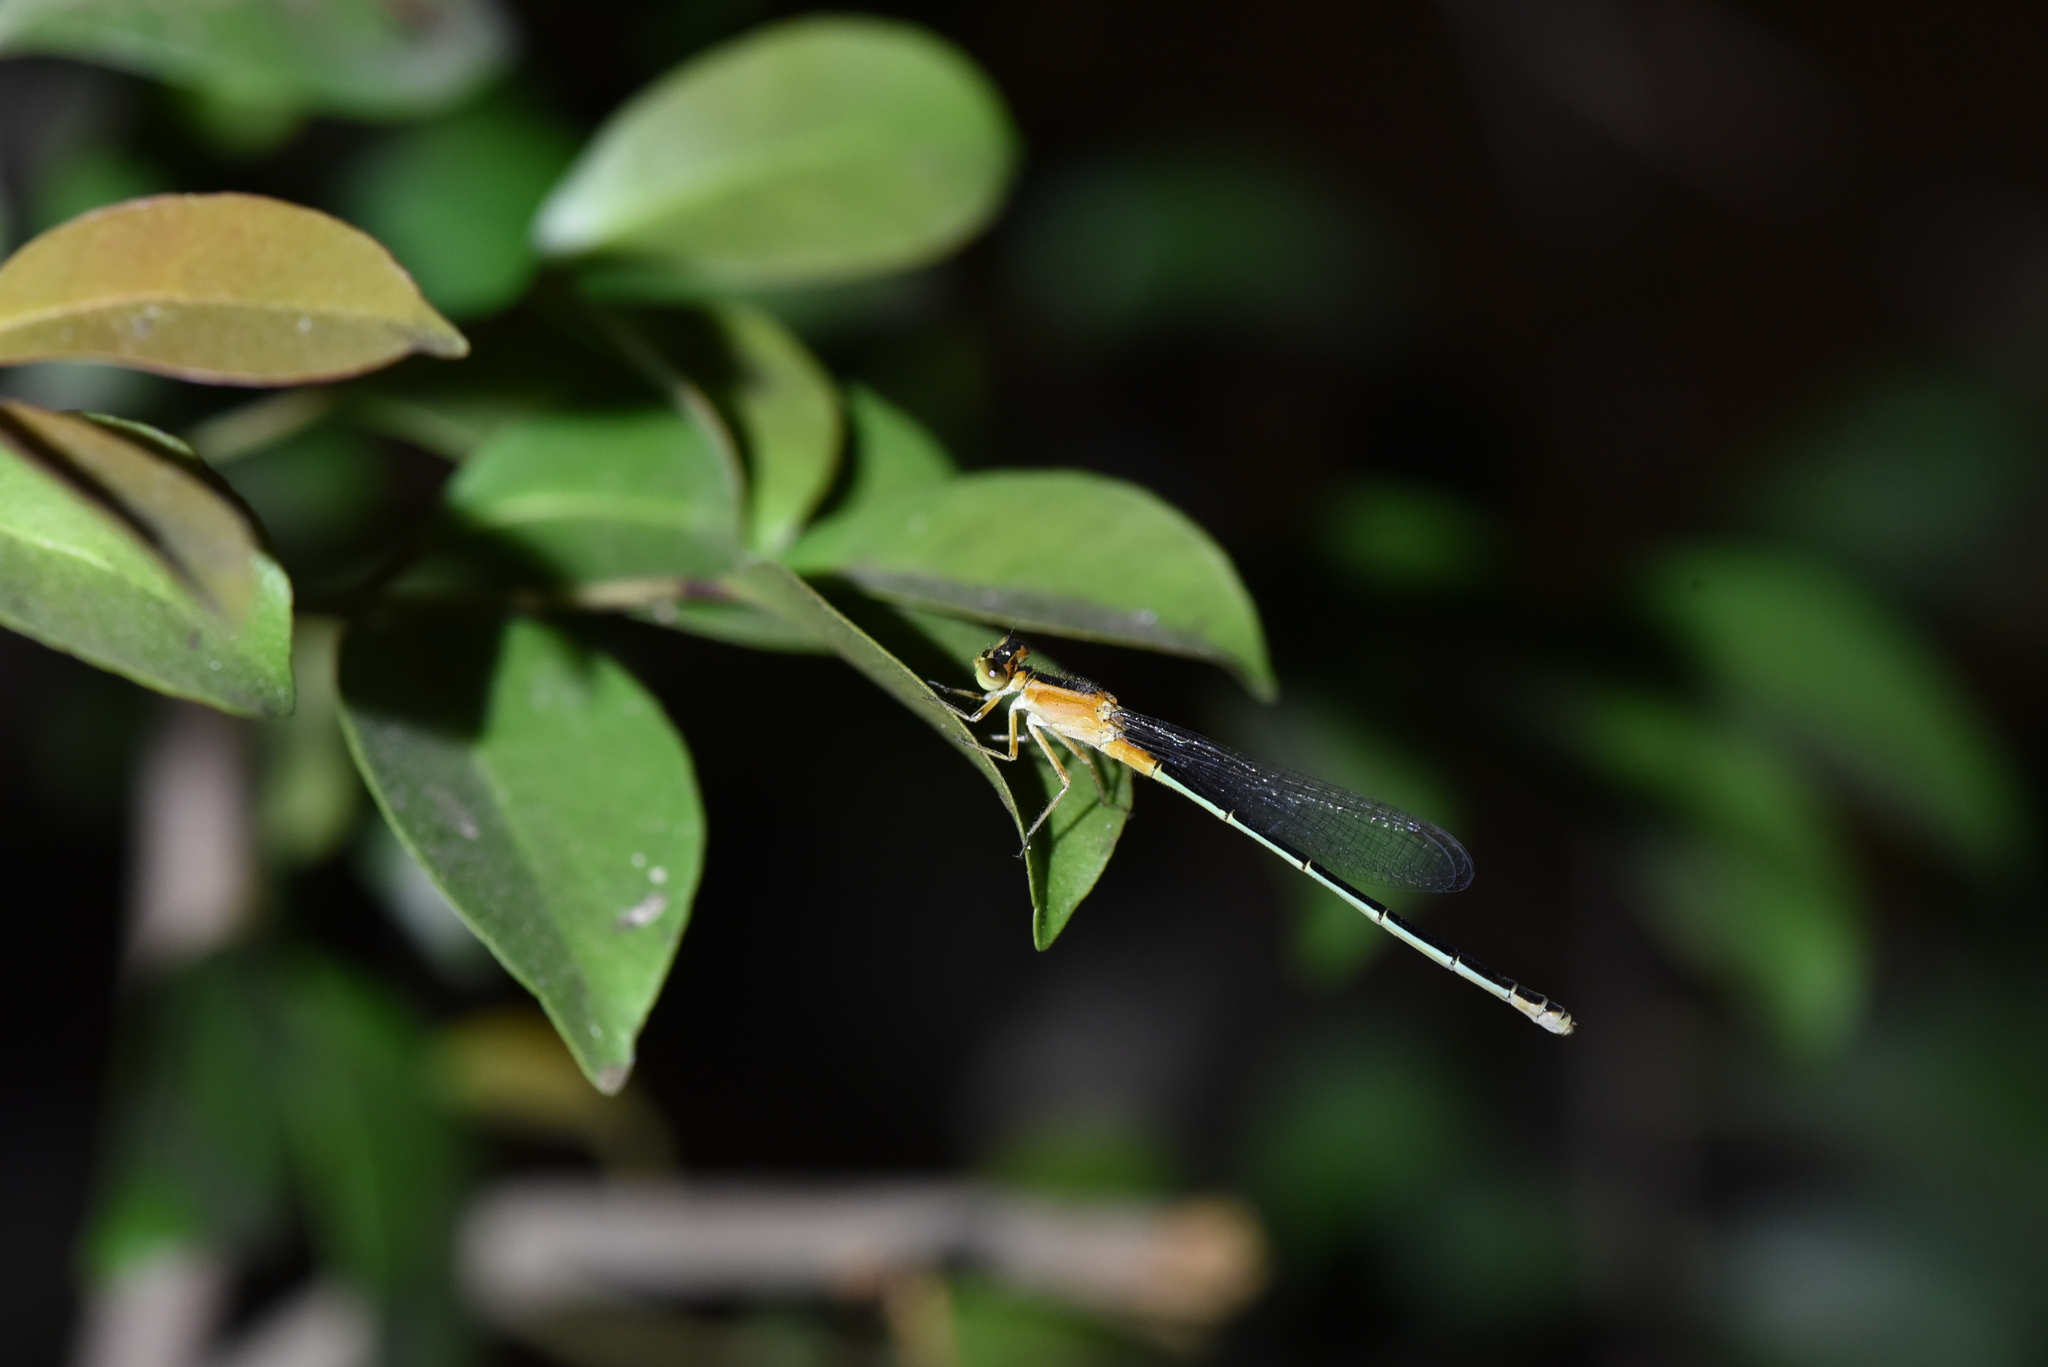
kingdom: Animalia
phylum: Arthropoda
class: Insecta
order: Odonata
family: Coenagrionidae
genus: Ischnura
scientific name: Ischnura senegalensis
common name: Tropical bluetail
